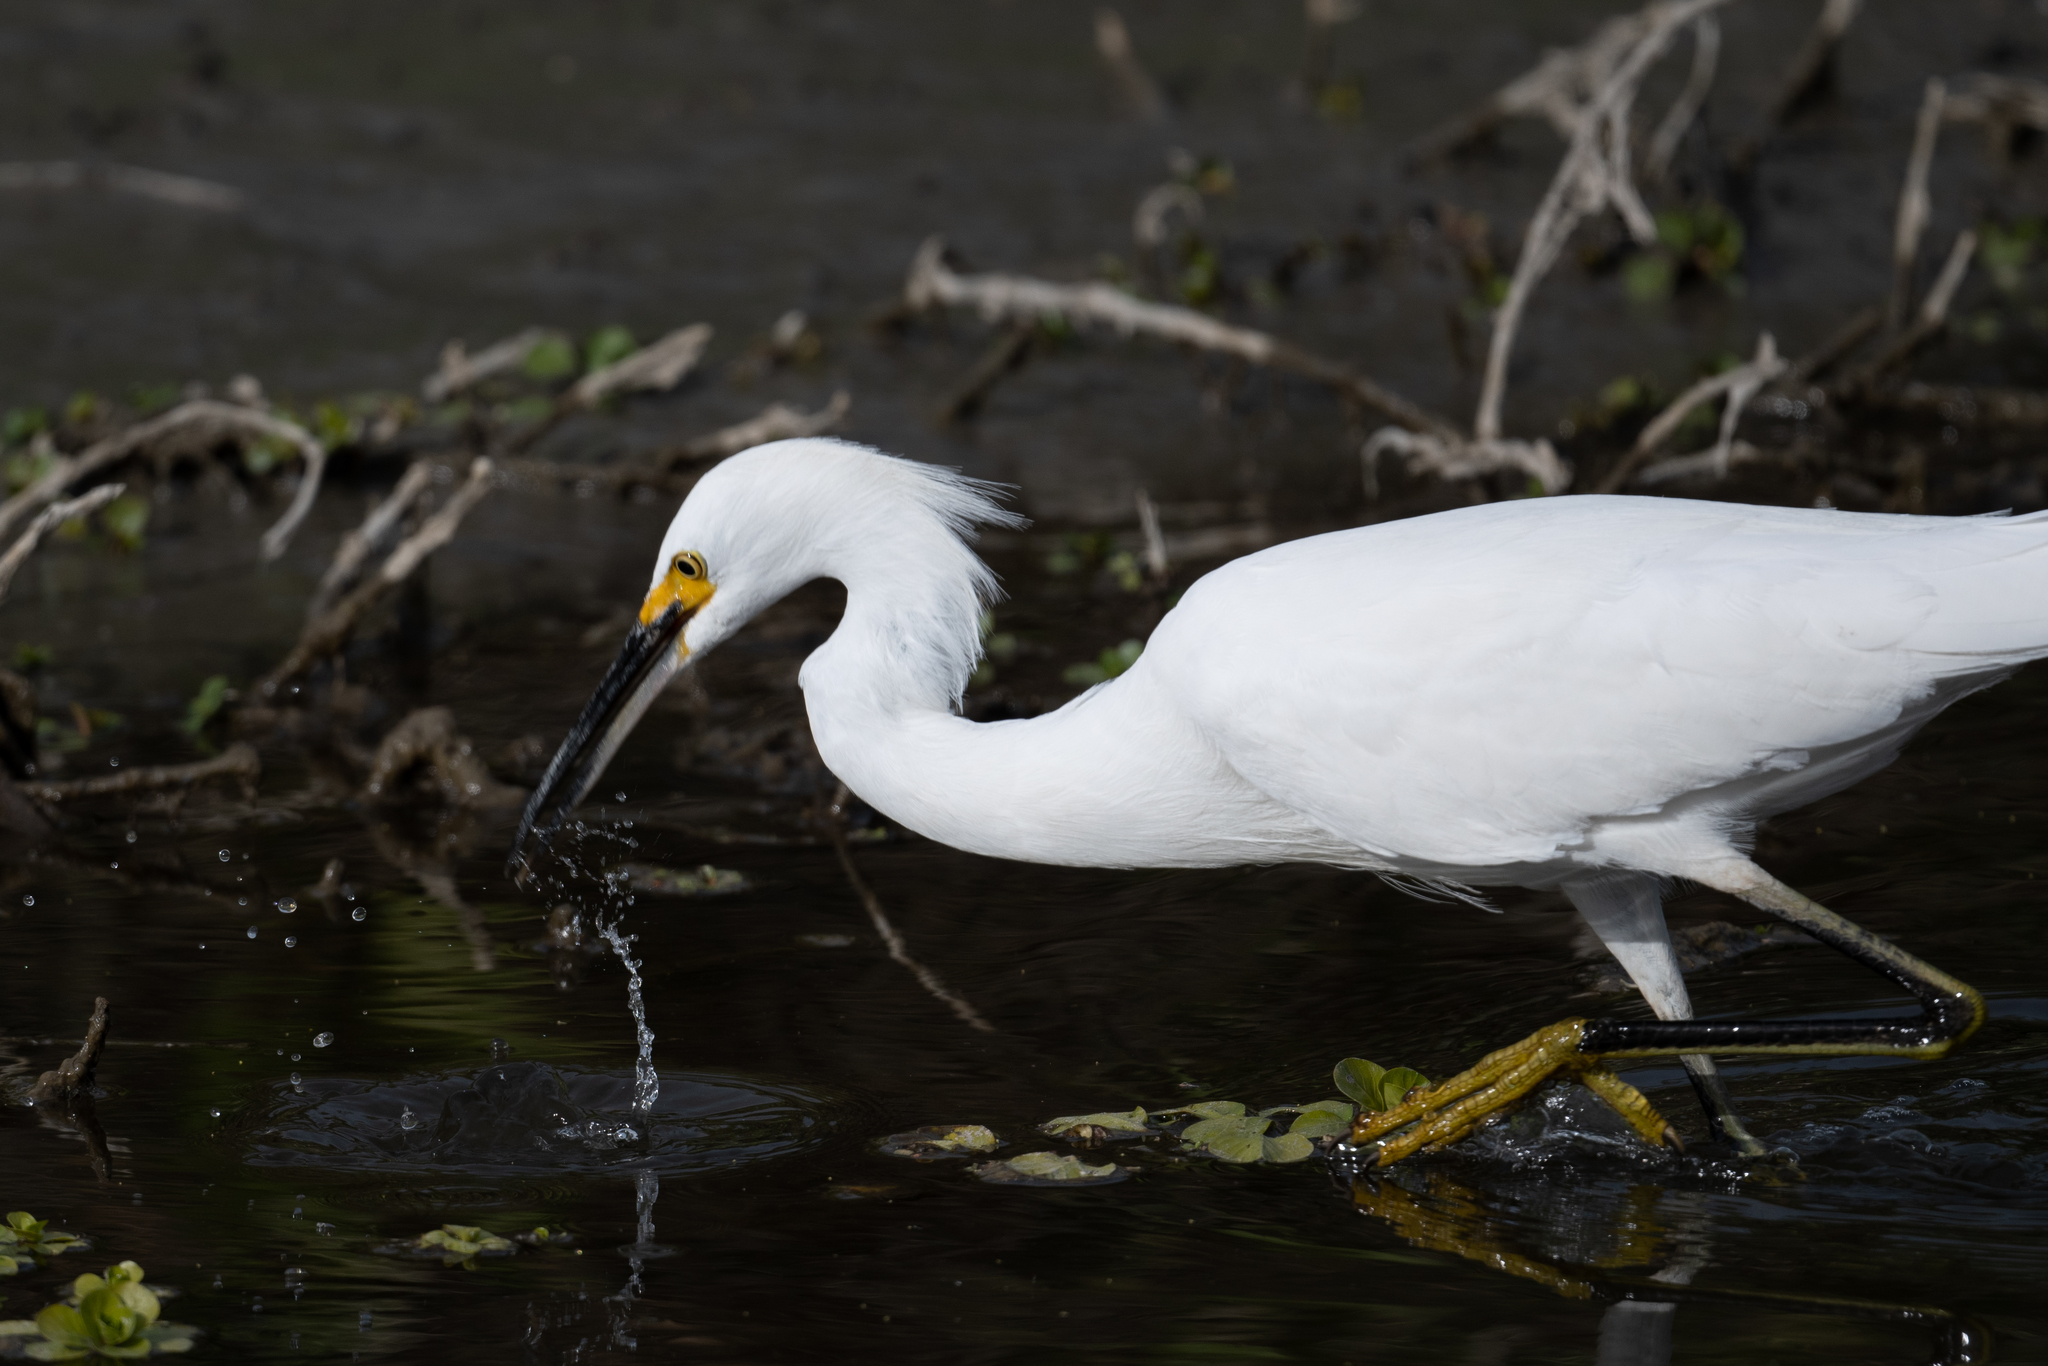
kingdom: Animalia
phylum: Chordata
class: Aves
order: Pelecaniformes
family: Ardeidae
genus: Egretta
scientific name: Egretta thula
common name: Snowy egret
